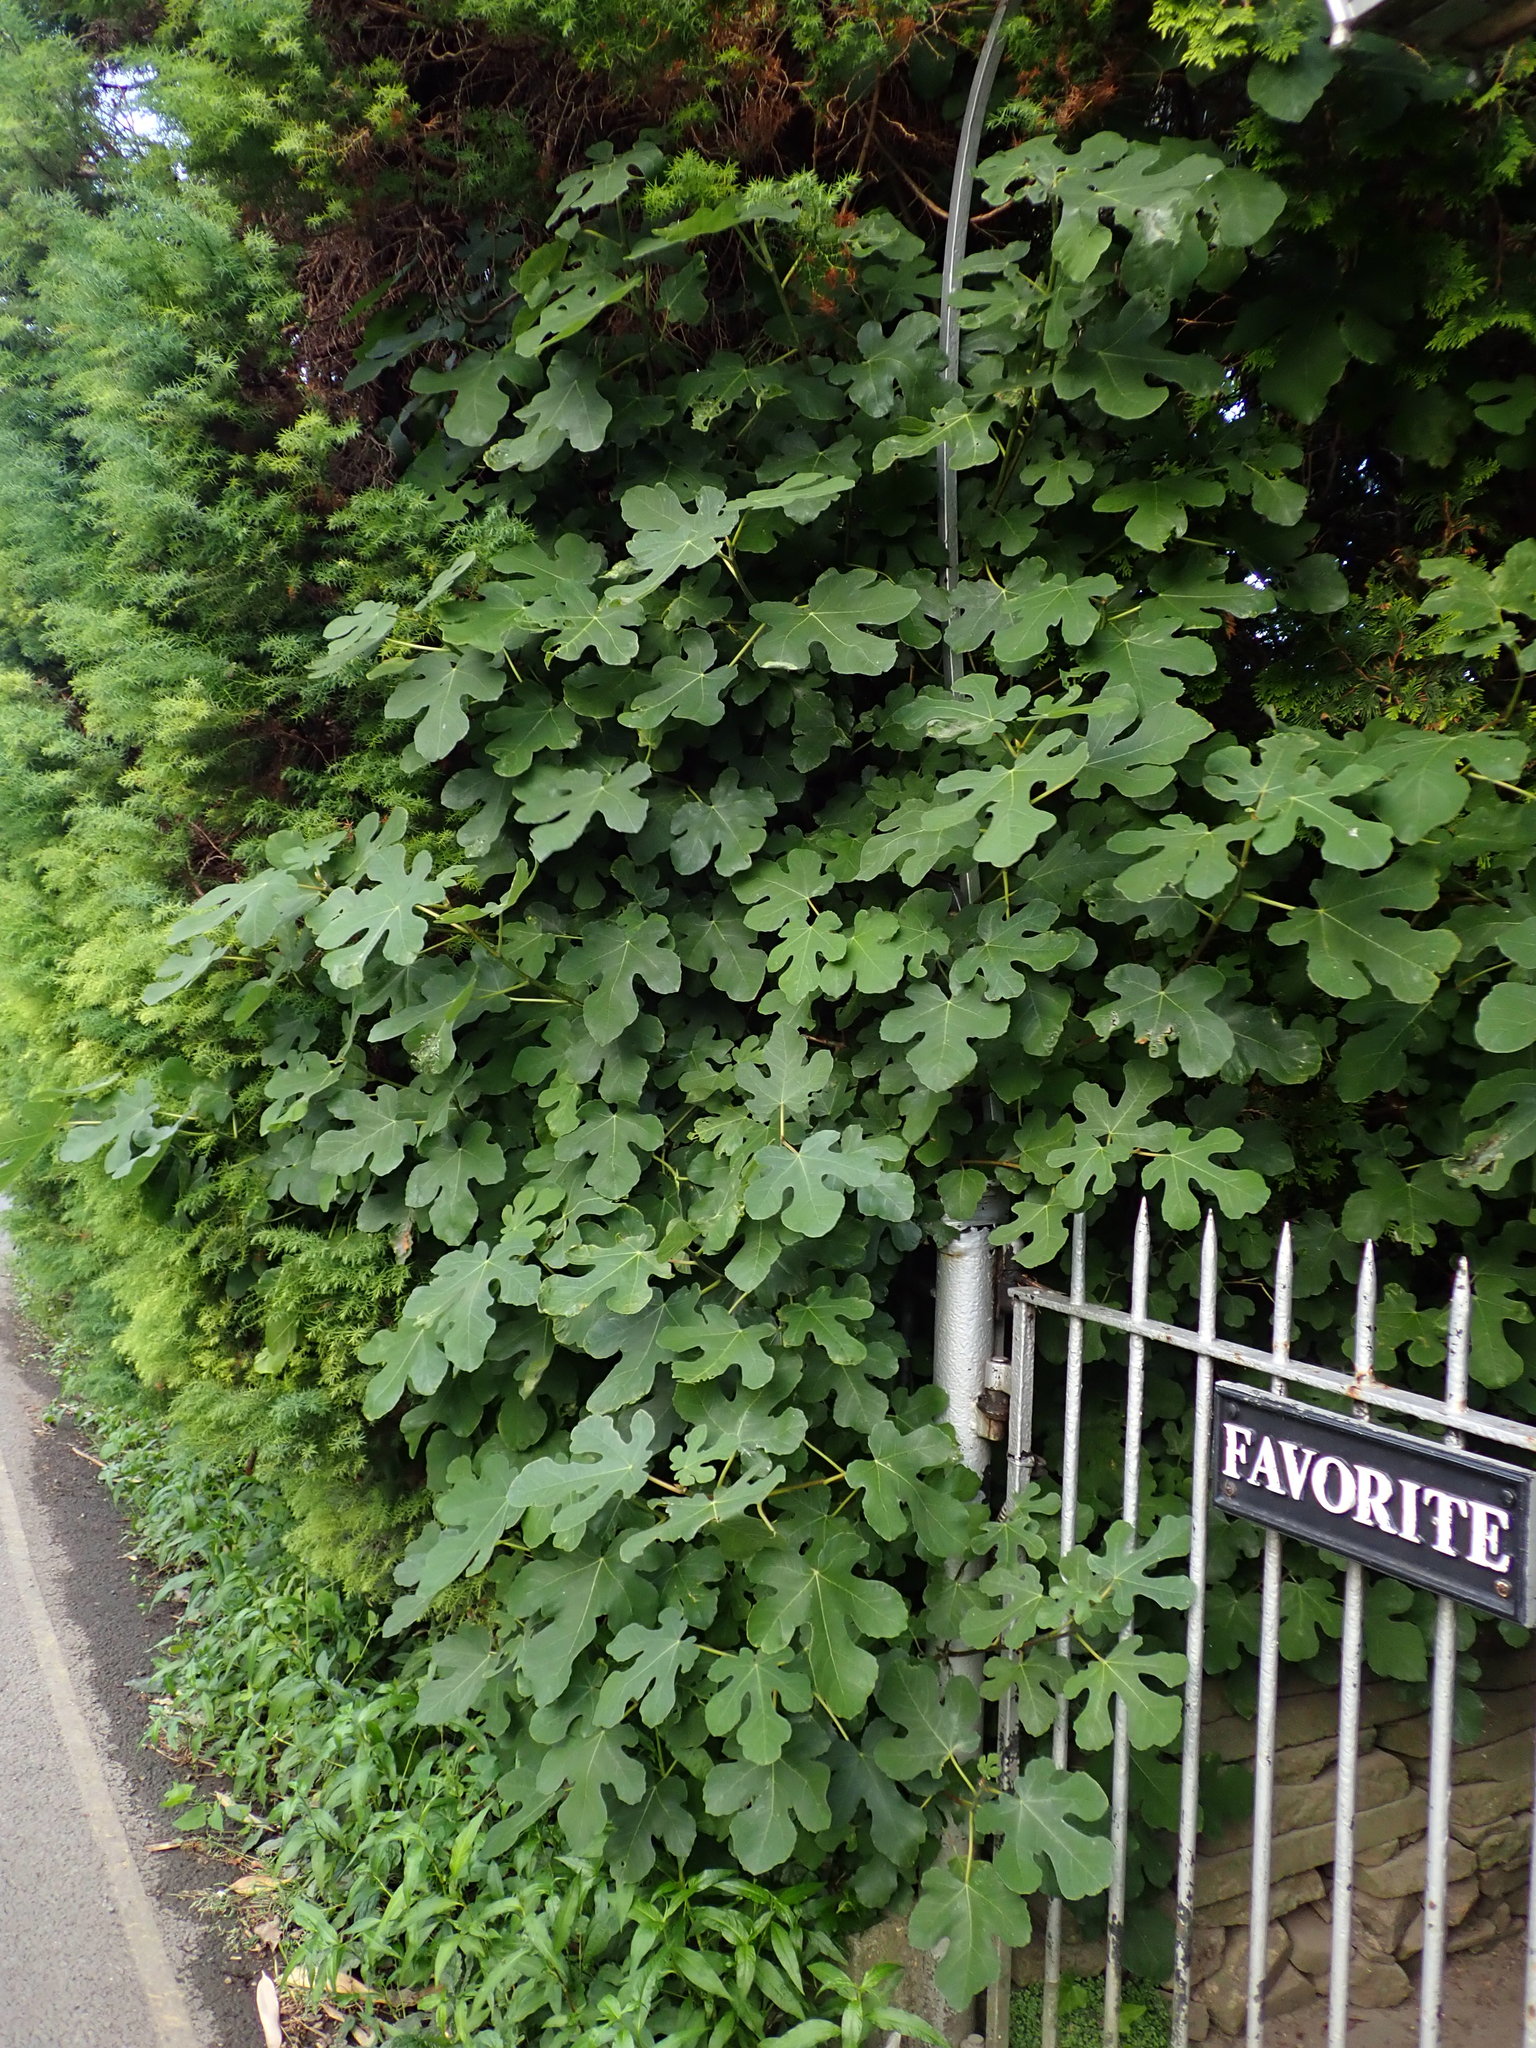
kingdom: Plantae
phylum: Tracheophyta
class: Magnoliopsida
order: Rosales
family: Moraceae
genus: Ficus
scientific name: Ficus carica
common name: Fig
